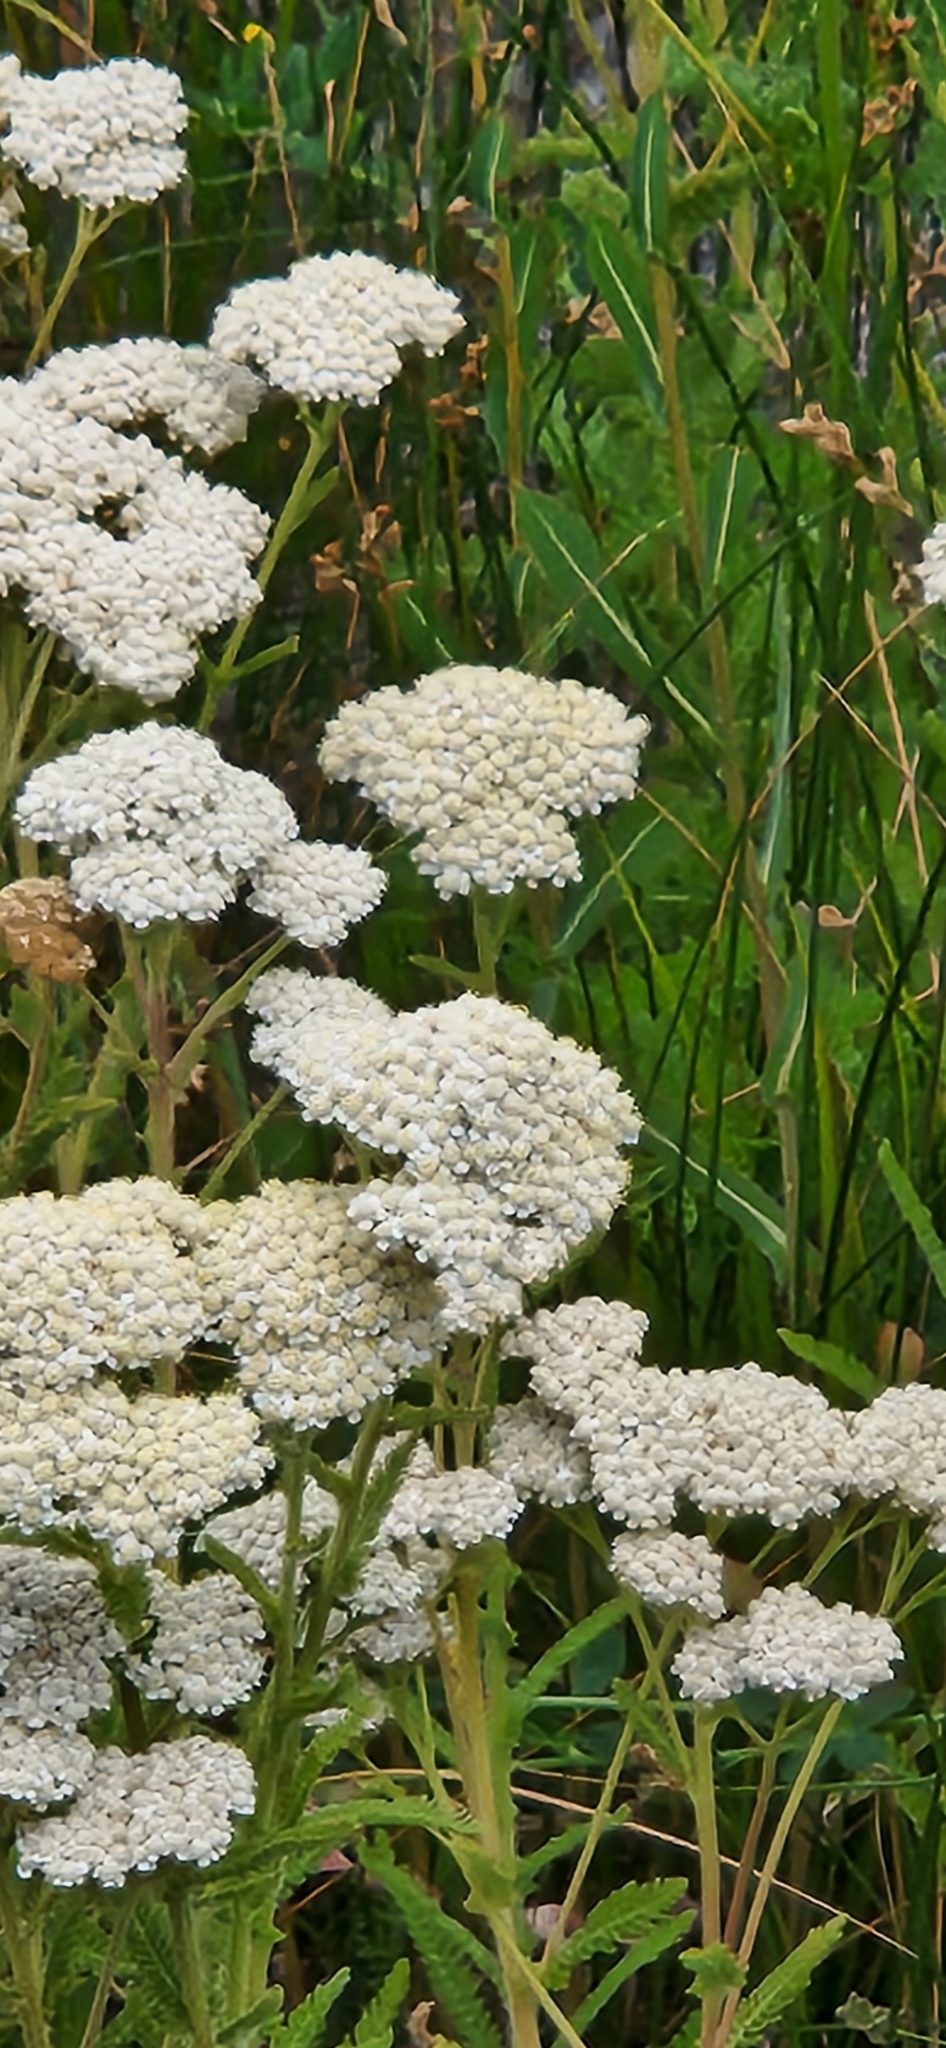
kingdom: Plantae
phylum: Tracheophyta
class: Magnoliopsida
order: Asterales
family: Asteraceae
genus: Achillea
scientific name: Achillea millefolium
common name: Yarrow
